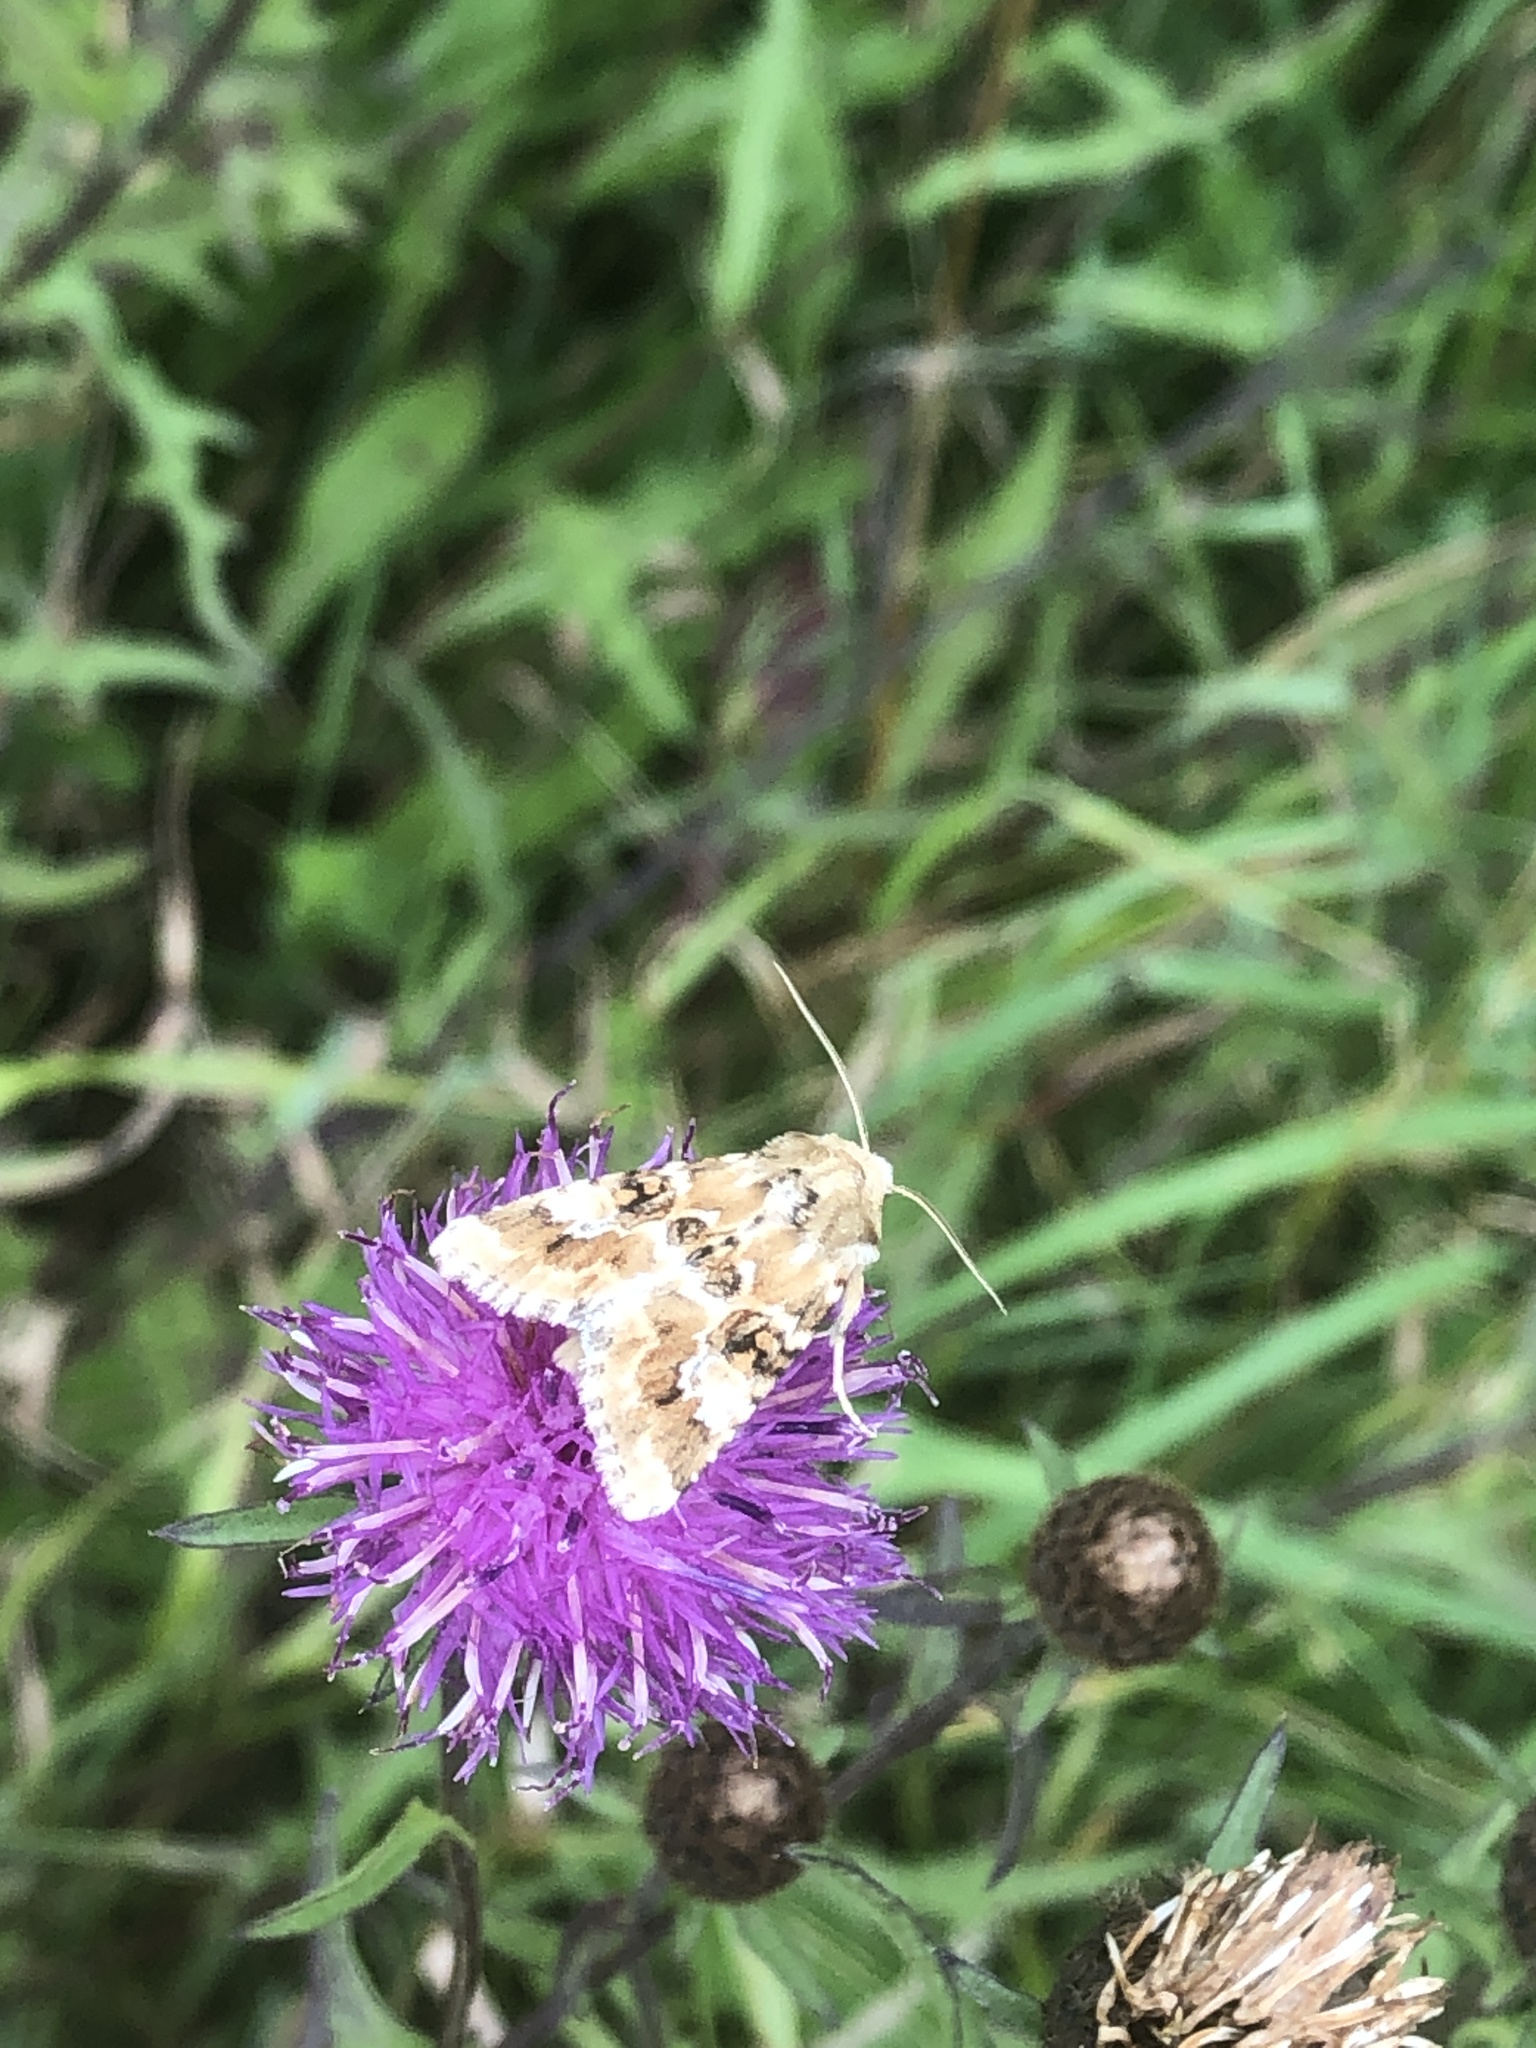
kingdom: Animalia
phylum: Arthropoda
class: Insecta
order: Lepidoptera
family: Noctuidae
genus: Eremobia
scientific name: Eremobia ochroleuca
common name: Dusky sallow
